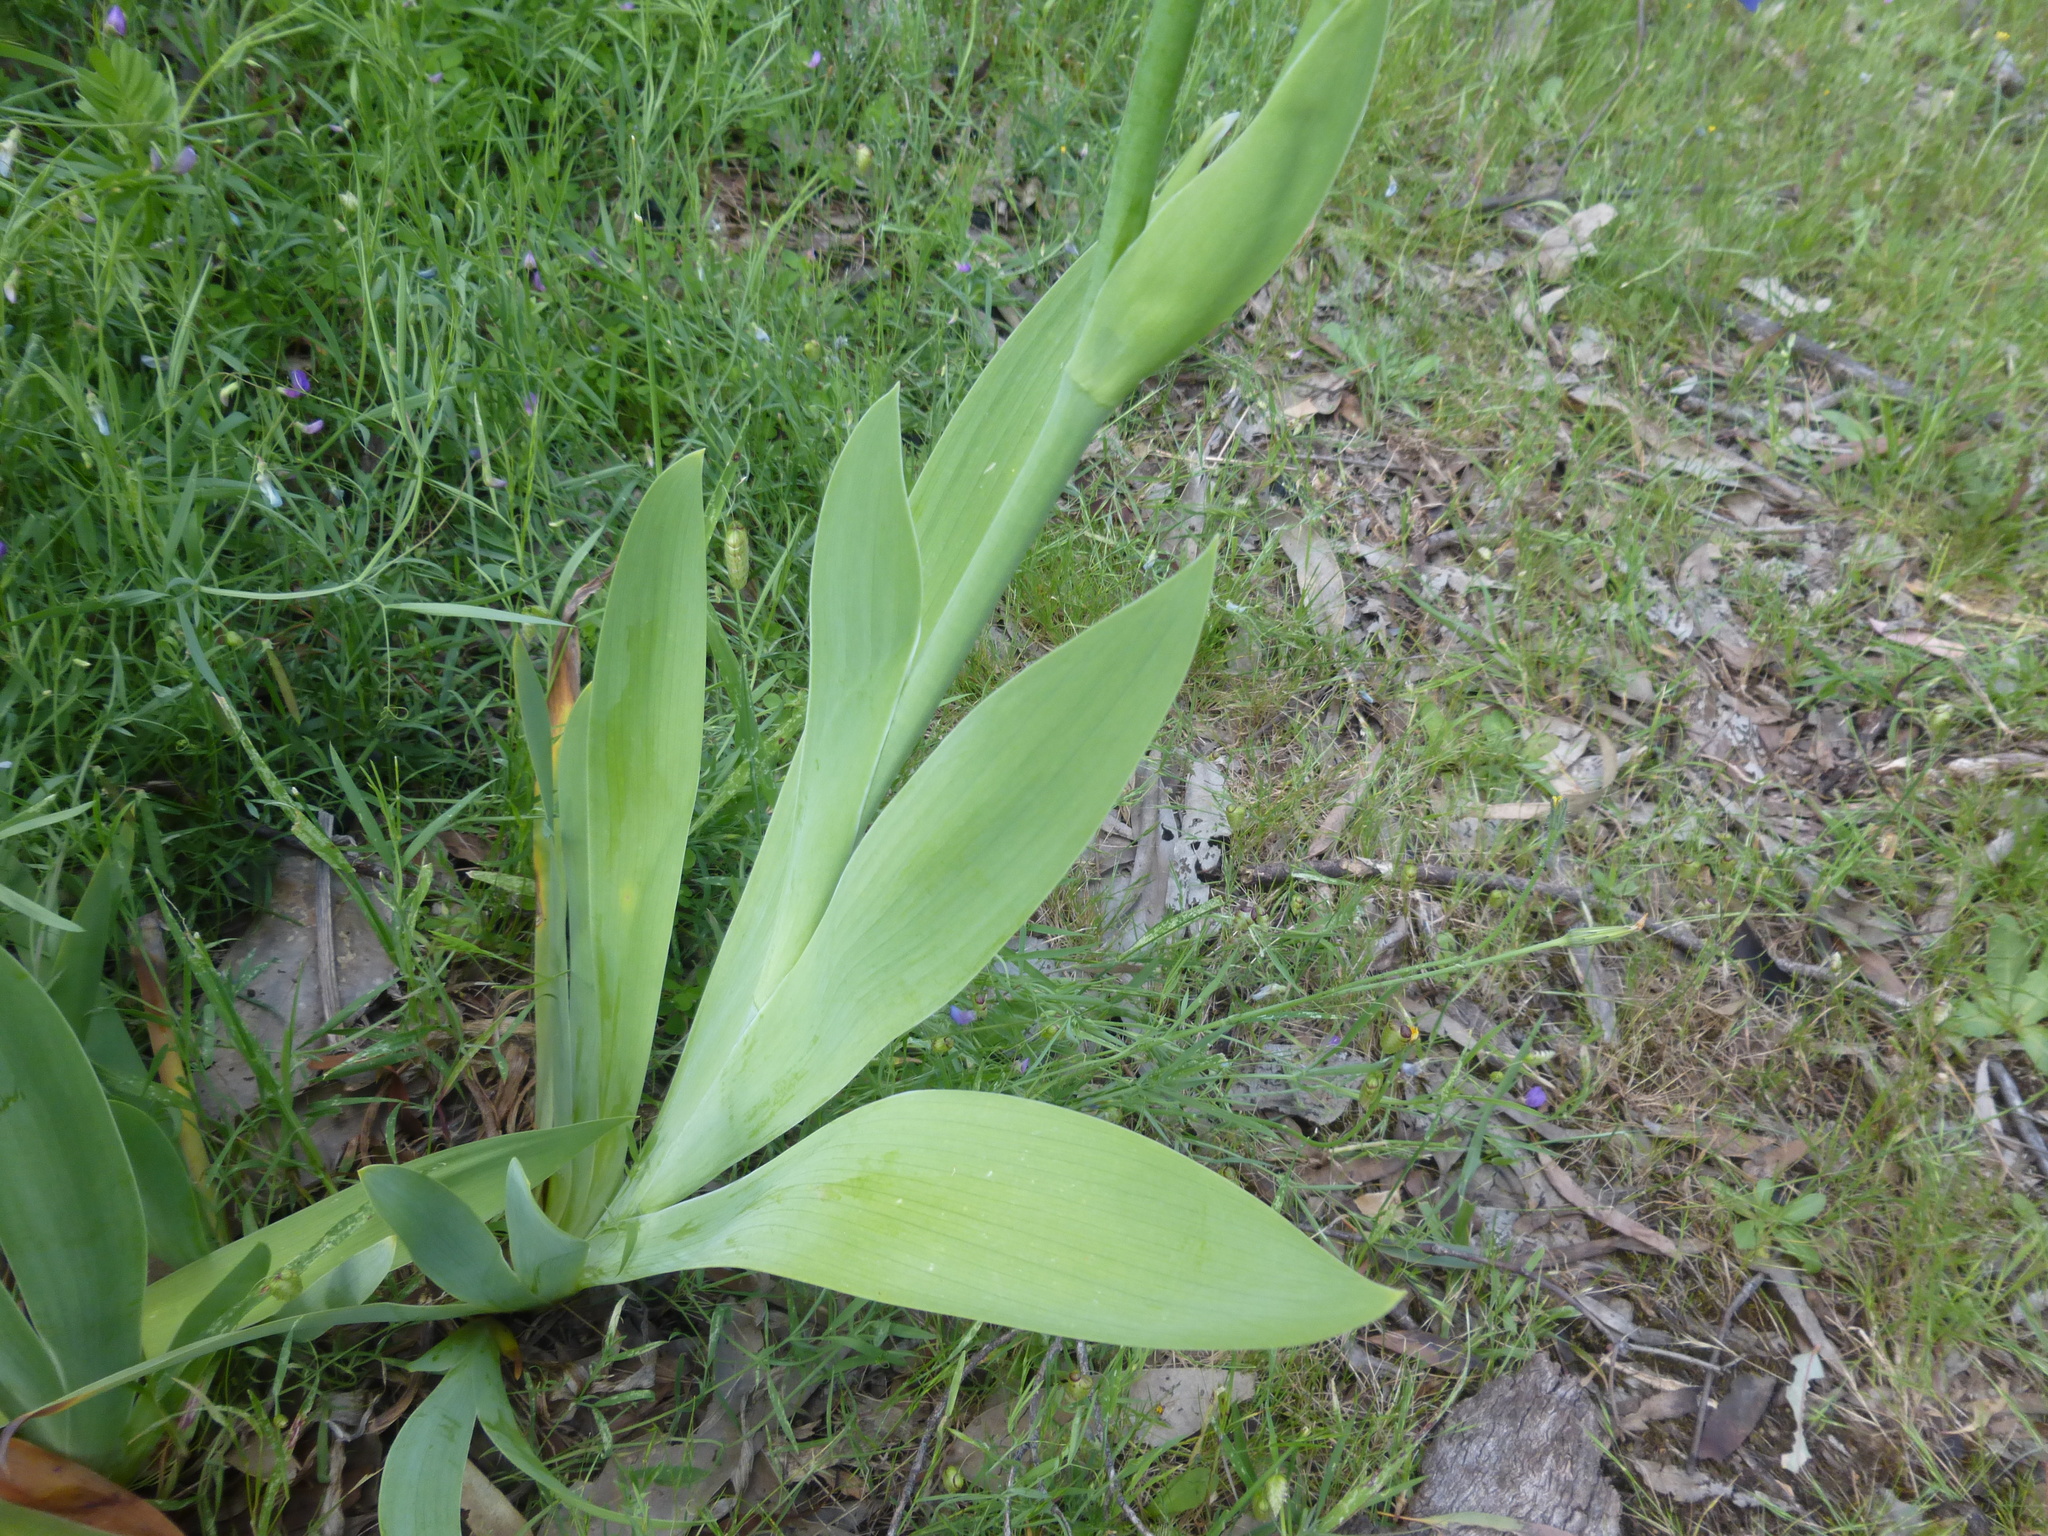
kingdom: Plantae
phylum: Tracheophyta
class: Liliopsida
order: Asparagales
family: Iridaceae
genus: Iris
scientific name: Iris germanica
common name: German iris
